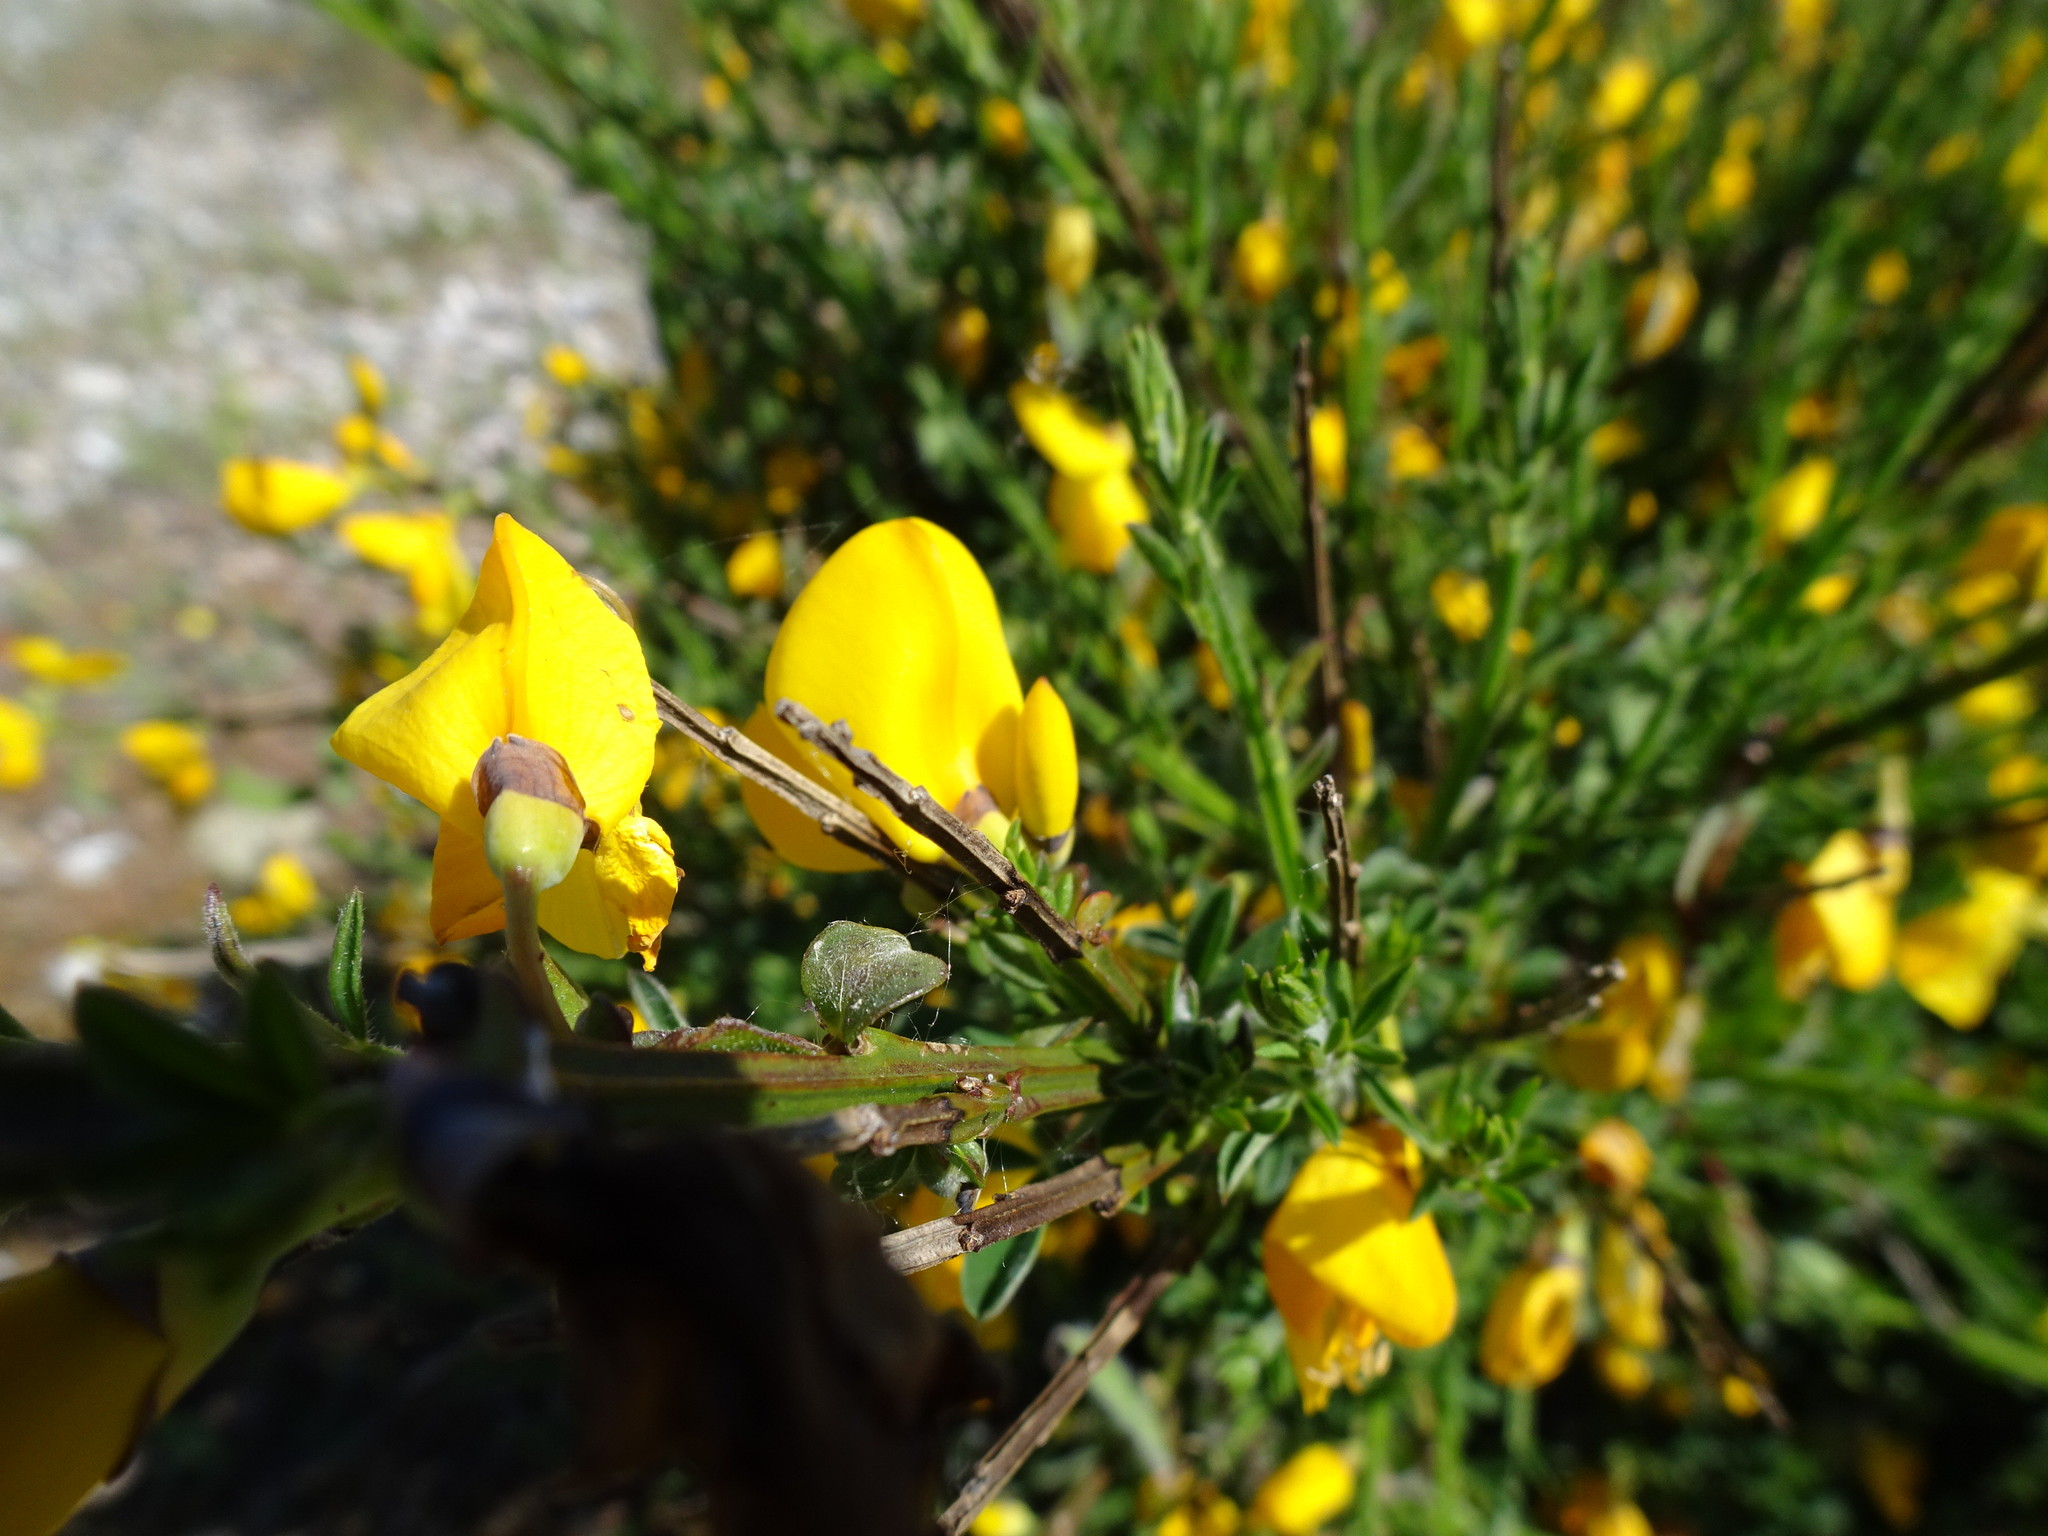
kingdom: Plantae
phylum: Tracheophyta
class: Magnoliopsida
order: Fabales
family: Fabaceae
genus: Cytisus
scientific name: Cytisus scoparius
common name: Scotch broom
